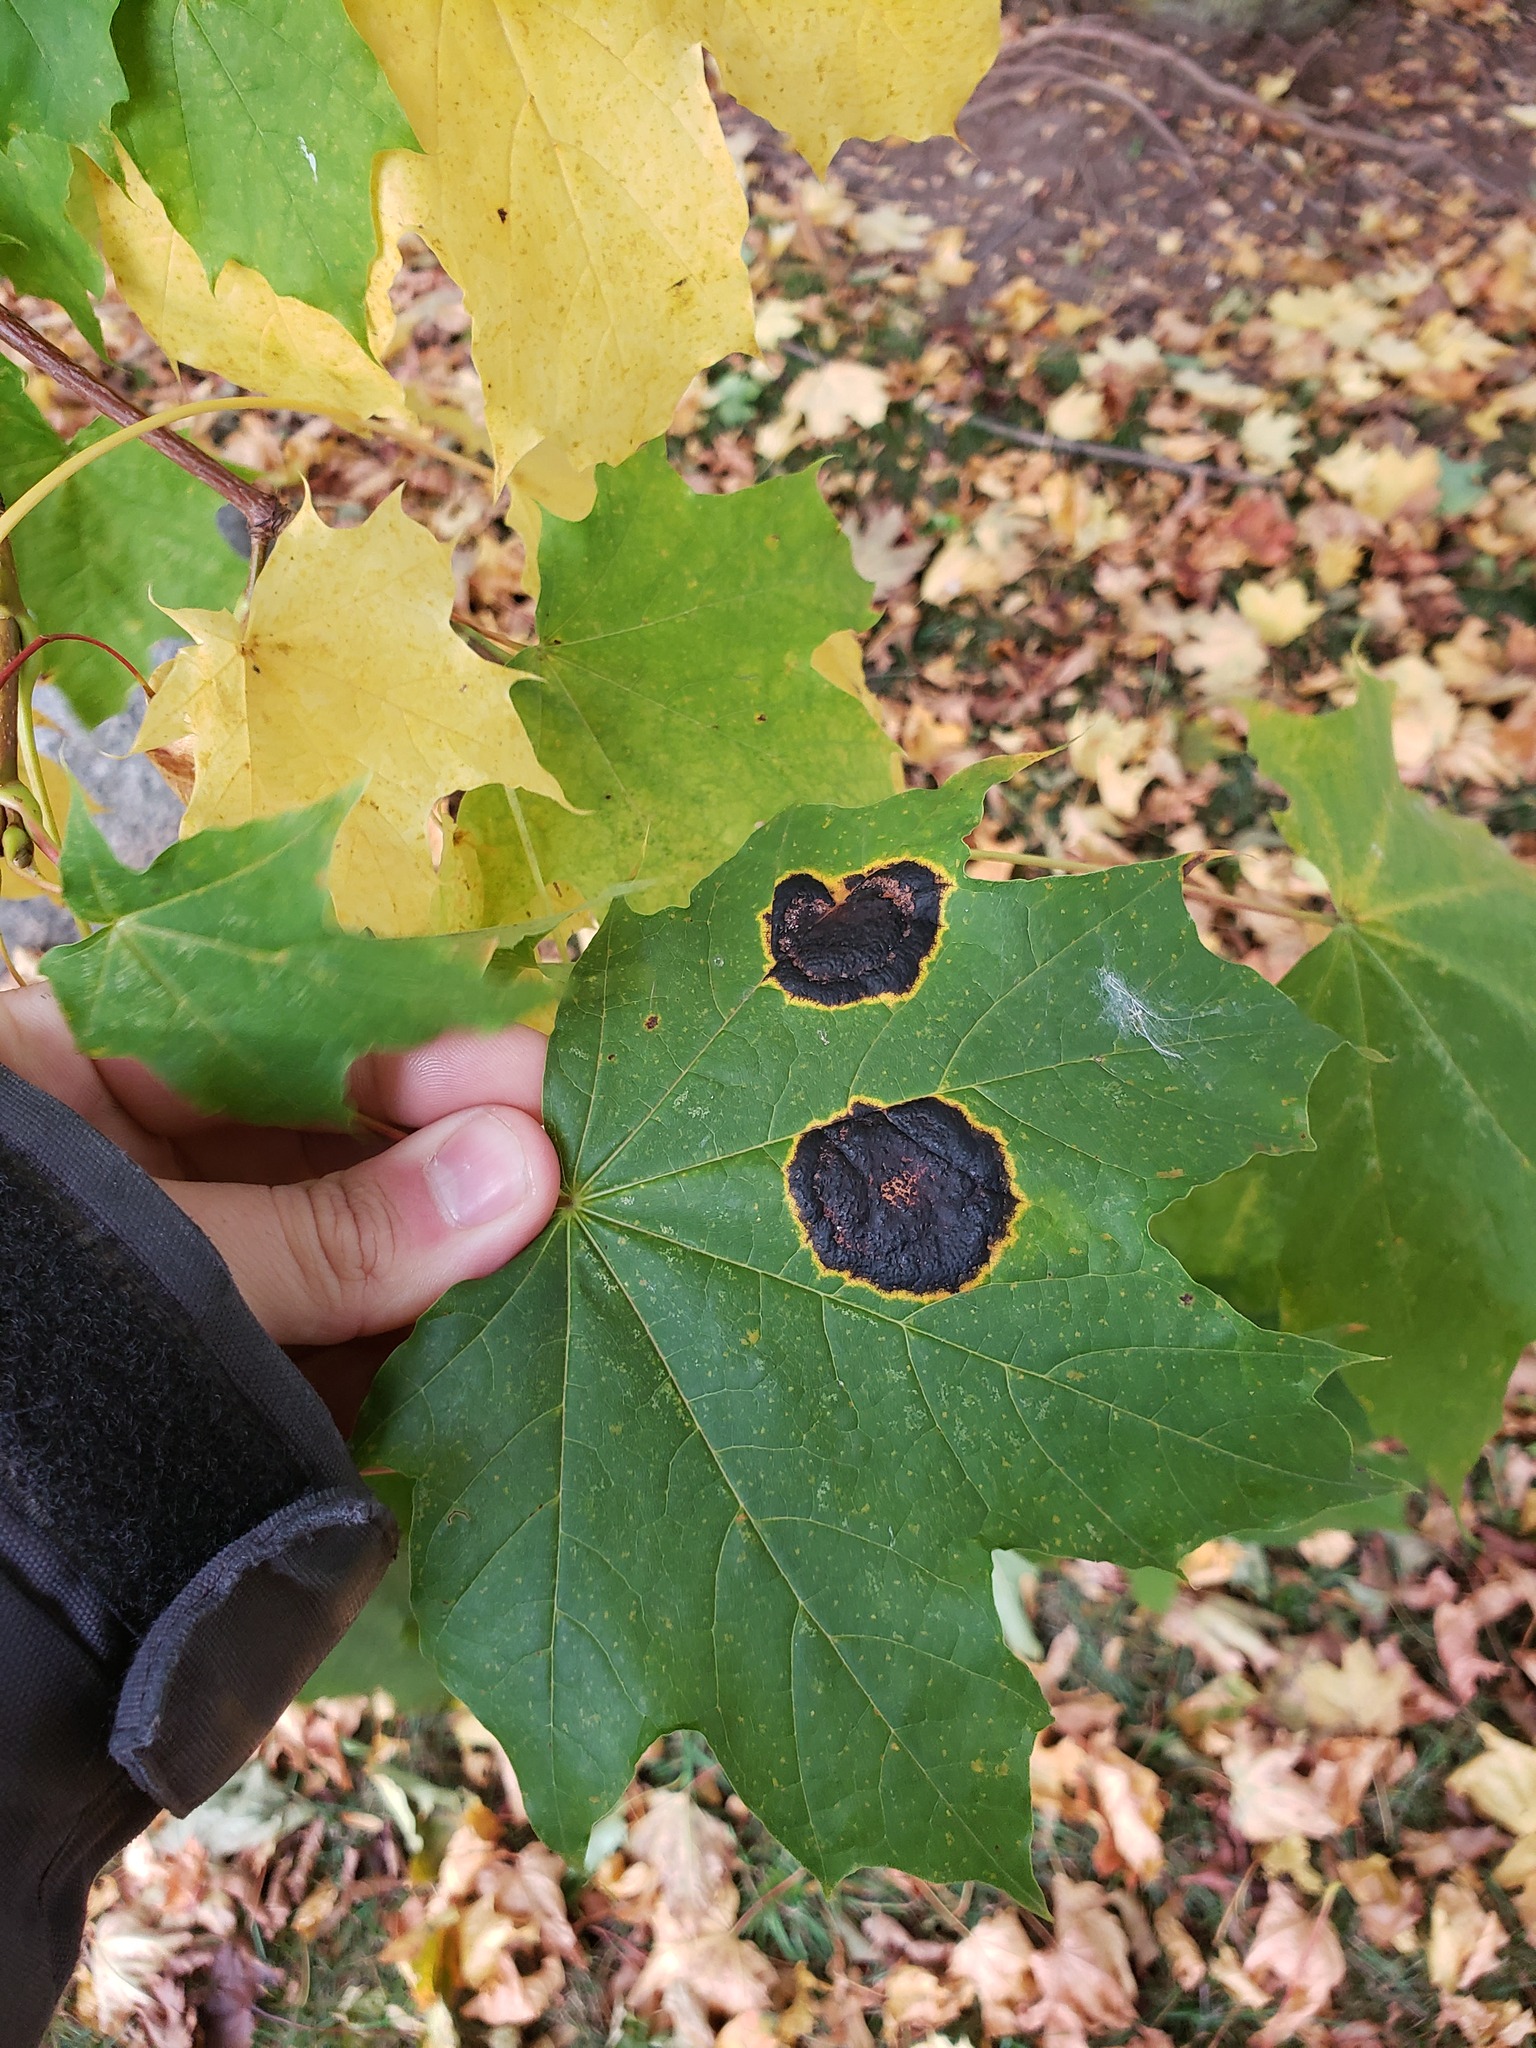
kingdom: Plantae
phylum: Tracheophyta
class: Magnoliopsida
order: Sapindales
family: Sapindaceae
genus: Acer
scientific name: Acer platanoides
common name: Norway maple
